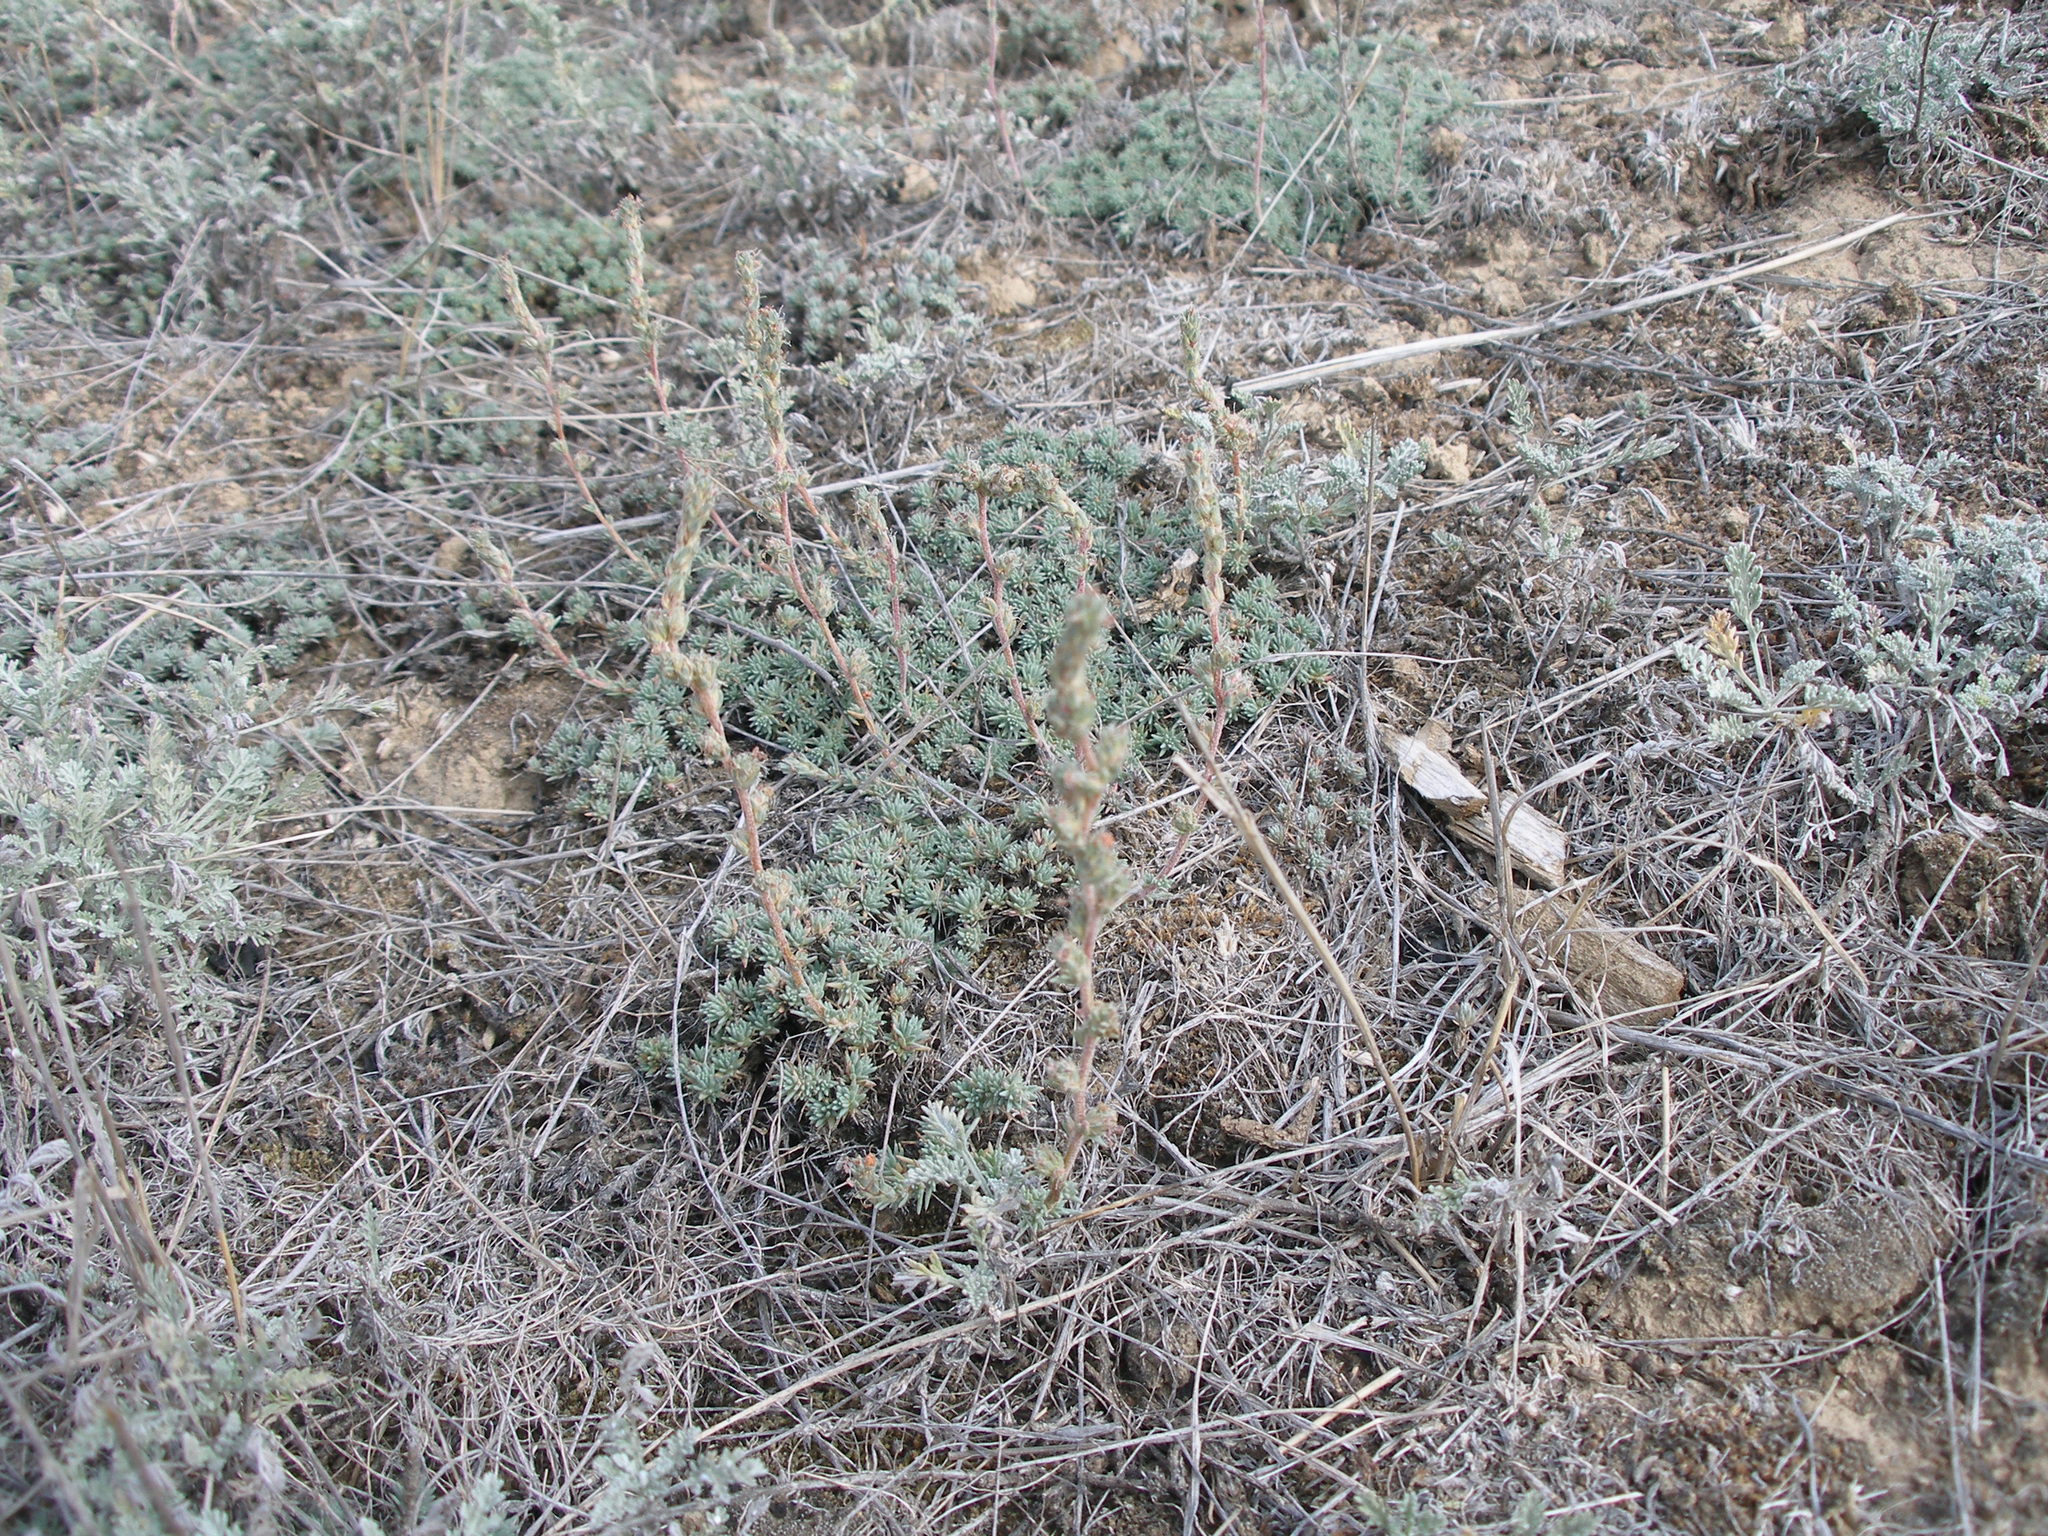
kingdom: Plantae
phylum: Tracheophyta
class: Magnoliopsida
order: Caryophyllales
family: Amaranthaceae
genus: Camphorosma
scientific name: Camphorosma monspeliaca
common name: Camphorfume
